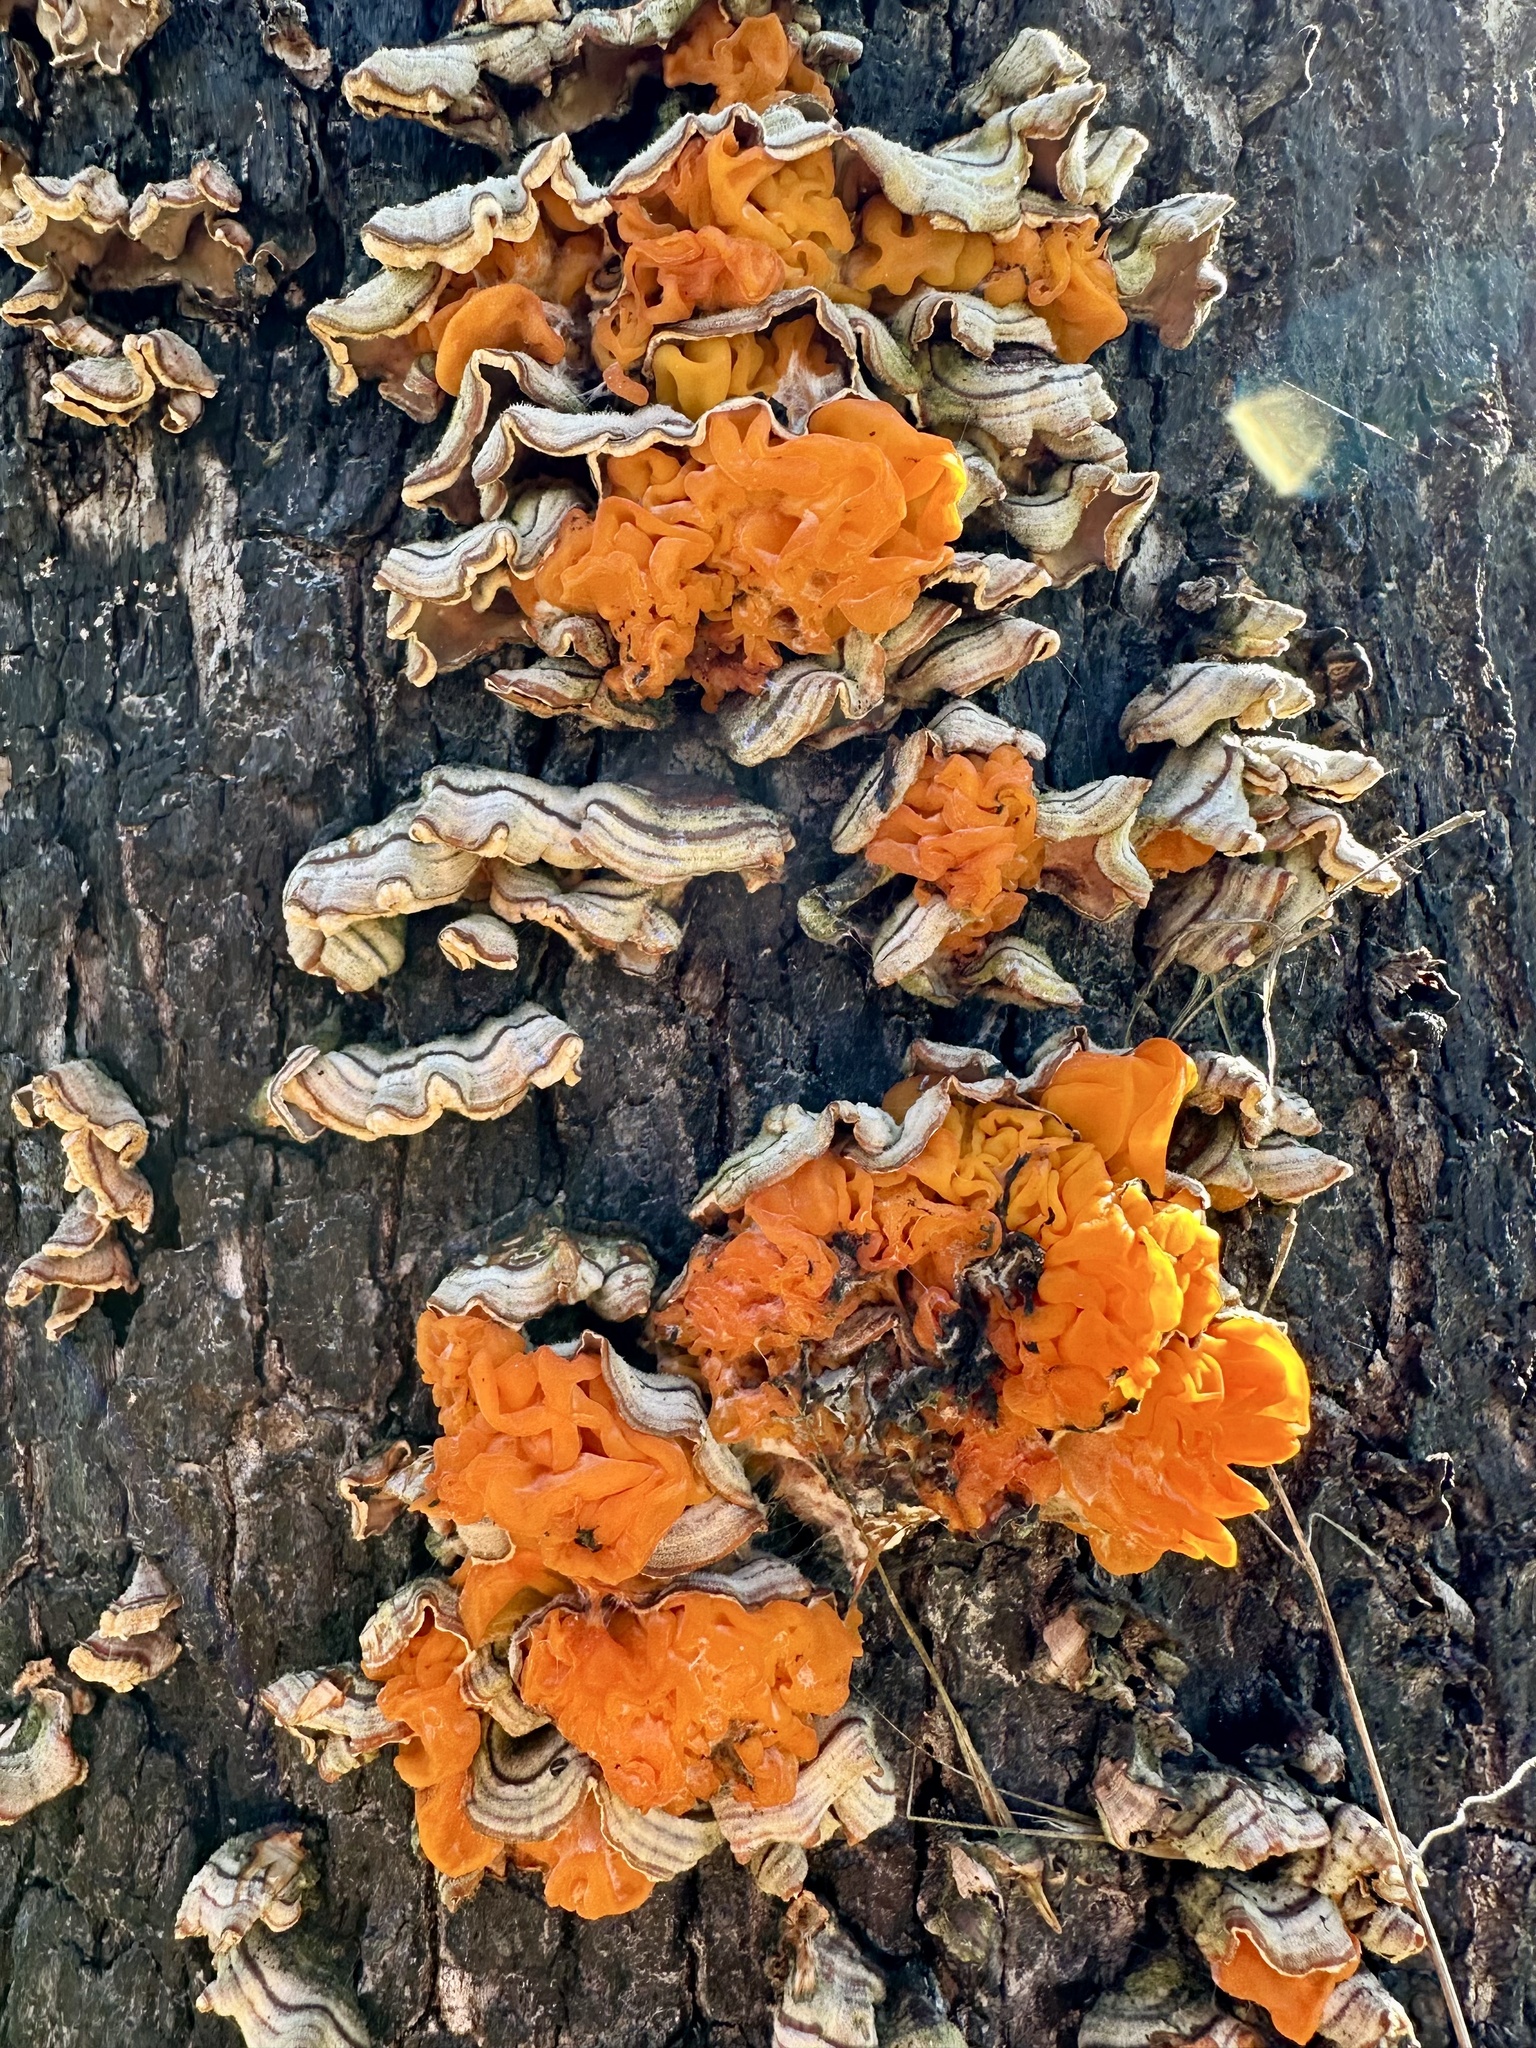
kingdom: Fungi
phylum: Basidiomycota
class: Tremellomycetes
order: Tremellales
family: Naemateliaceae
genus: Naematelia
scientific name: Naematelia aurantia
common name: Golden ear
